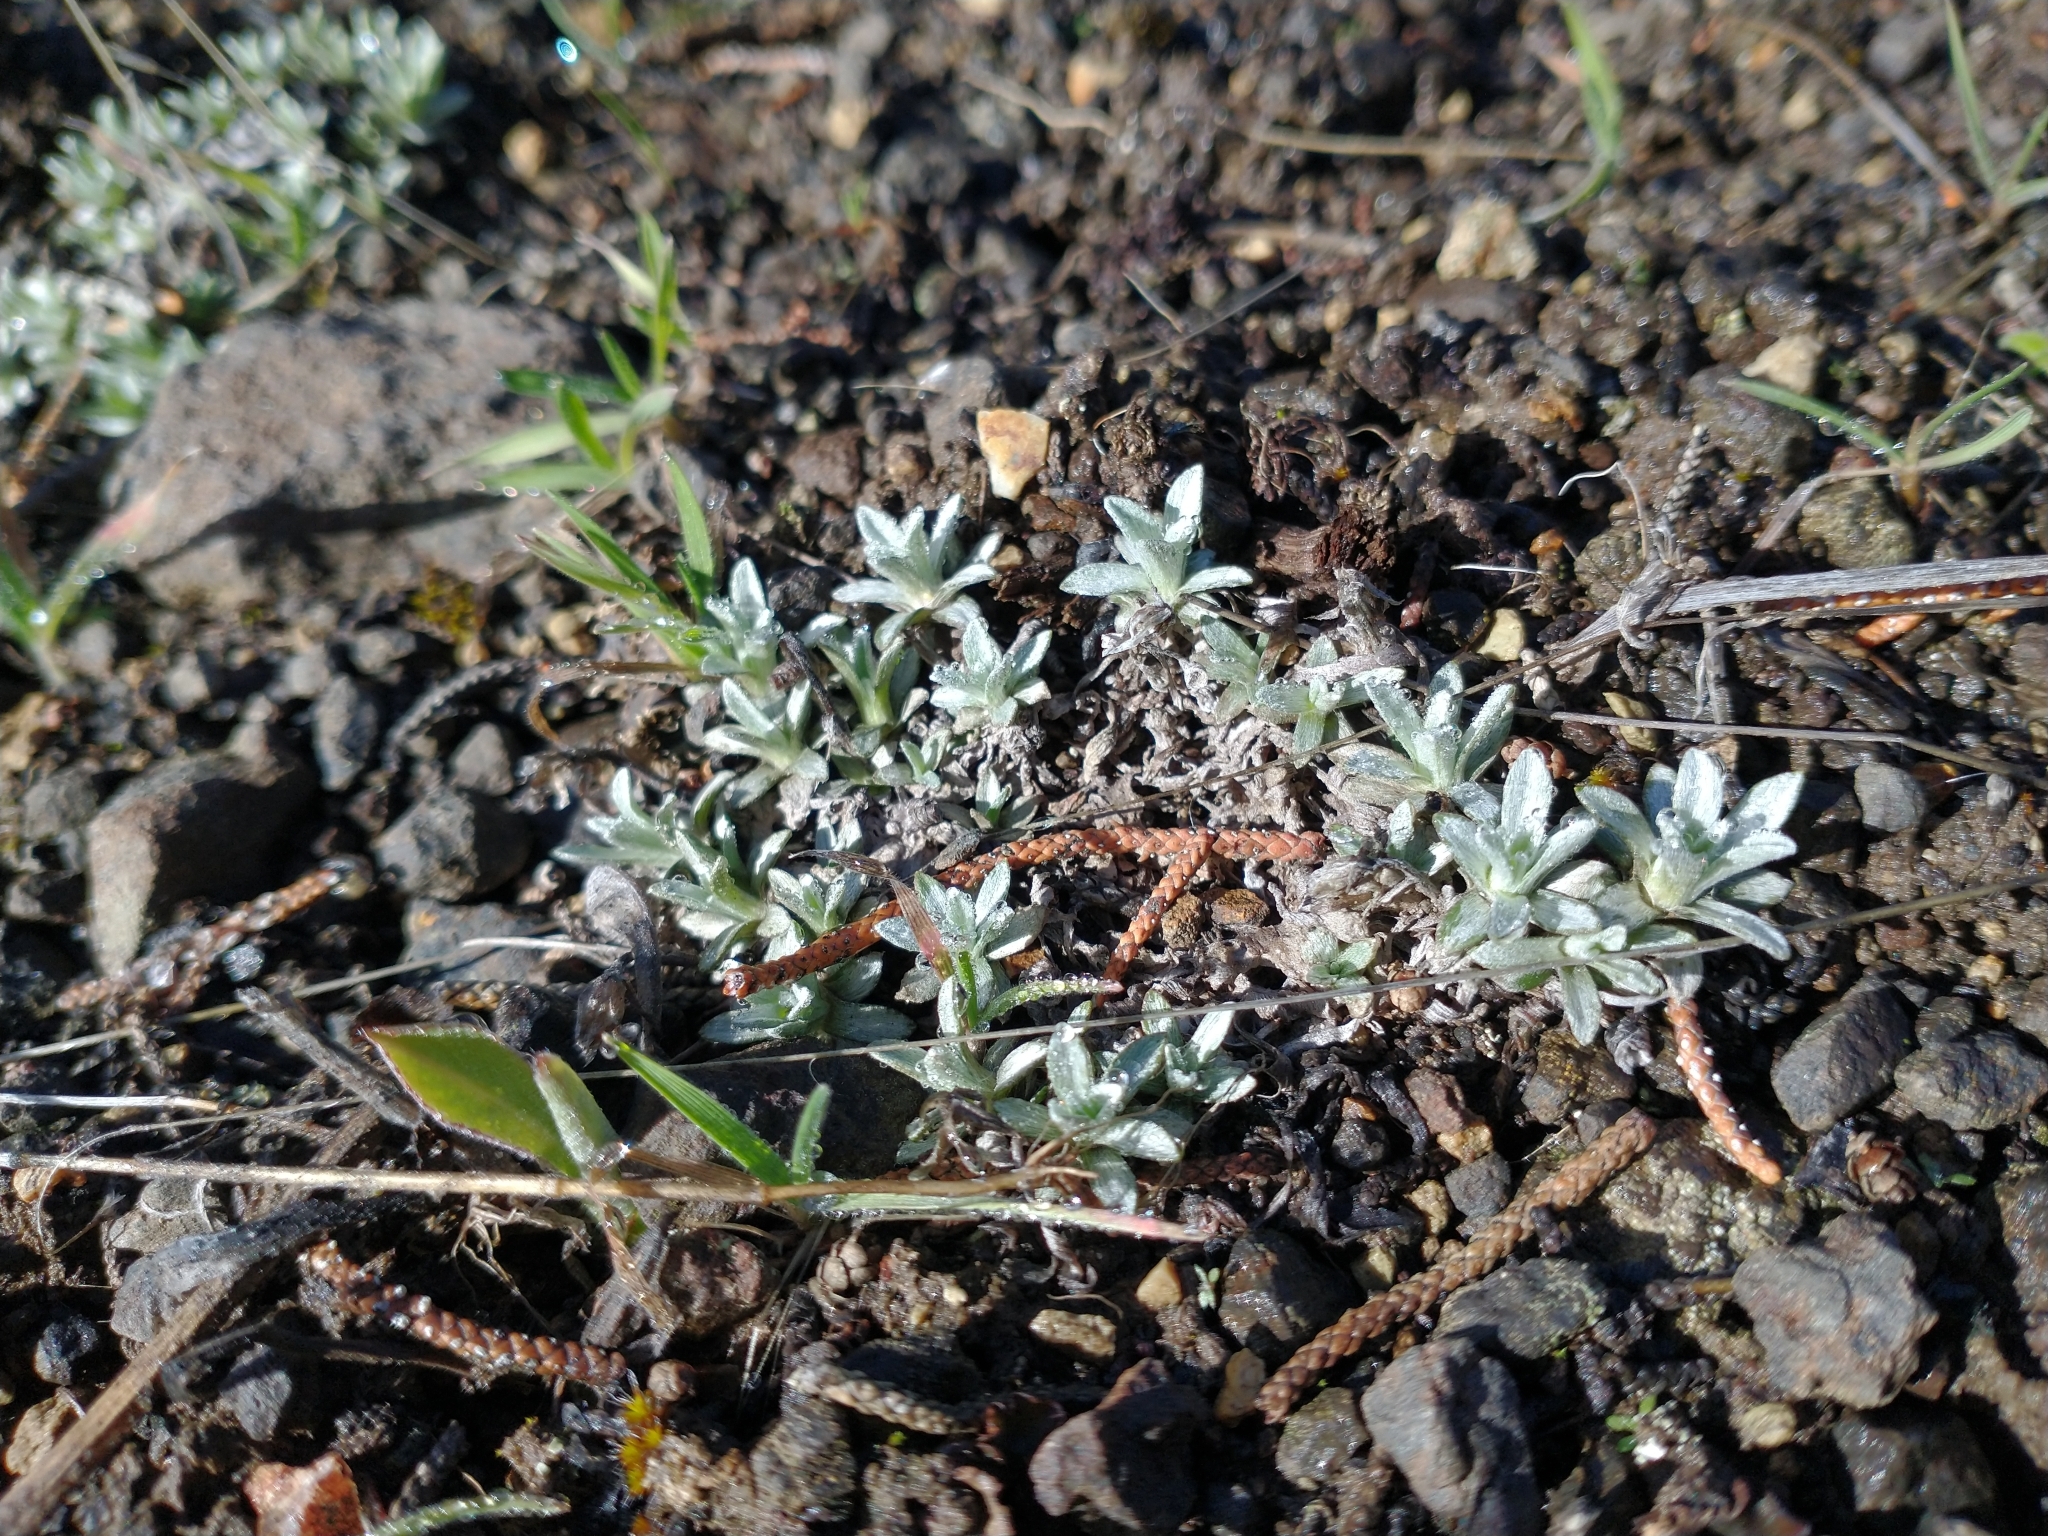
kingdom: Plantae
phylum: Tracheophyta
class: Magnoliopsida
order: Asterales
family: Asteraceae
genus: Antennaria
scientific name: Antennaria dimorpha
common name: Cushion pussytoes
